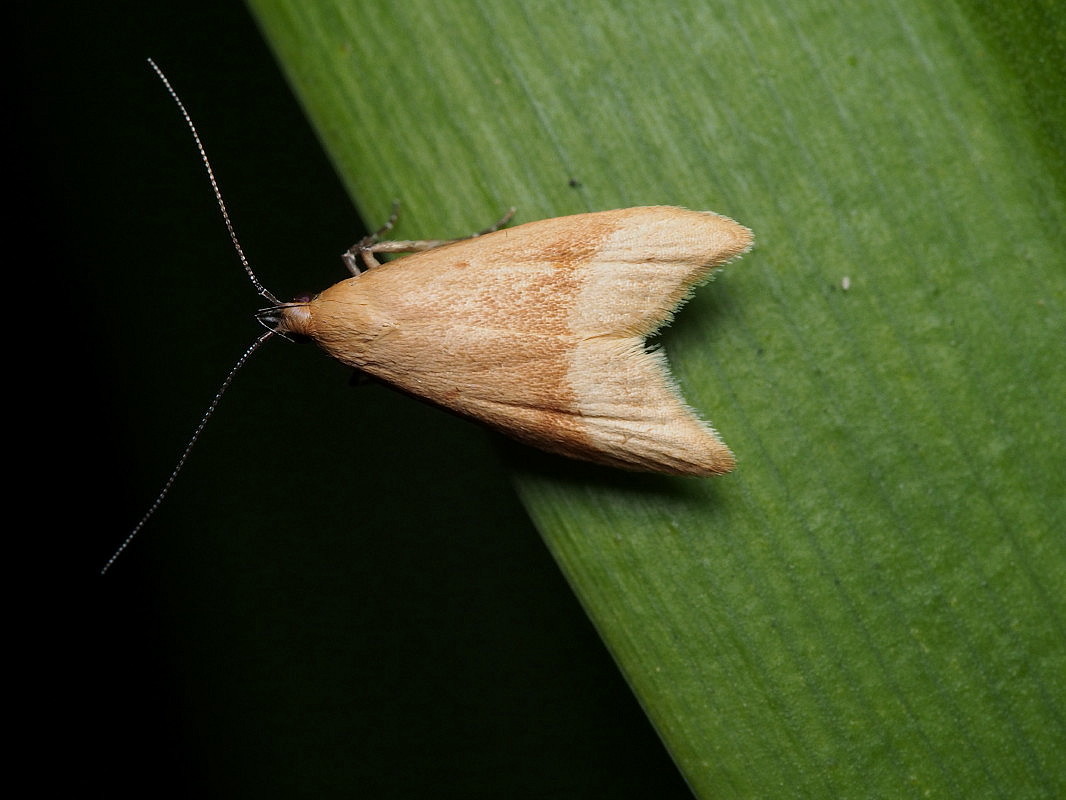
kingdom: Animalia
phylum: Arthropoda
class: Insecta
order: Lepidoptera
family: Oecophoridae
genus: Gymnobathra
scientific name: Gymnobathra hyetodes
